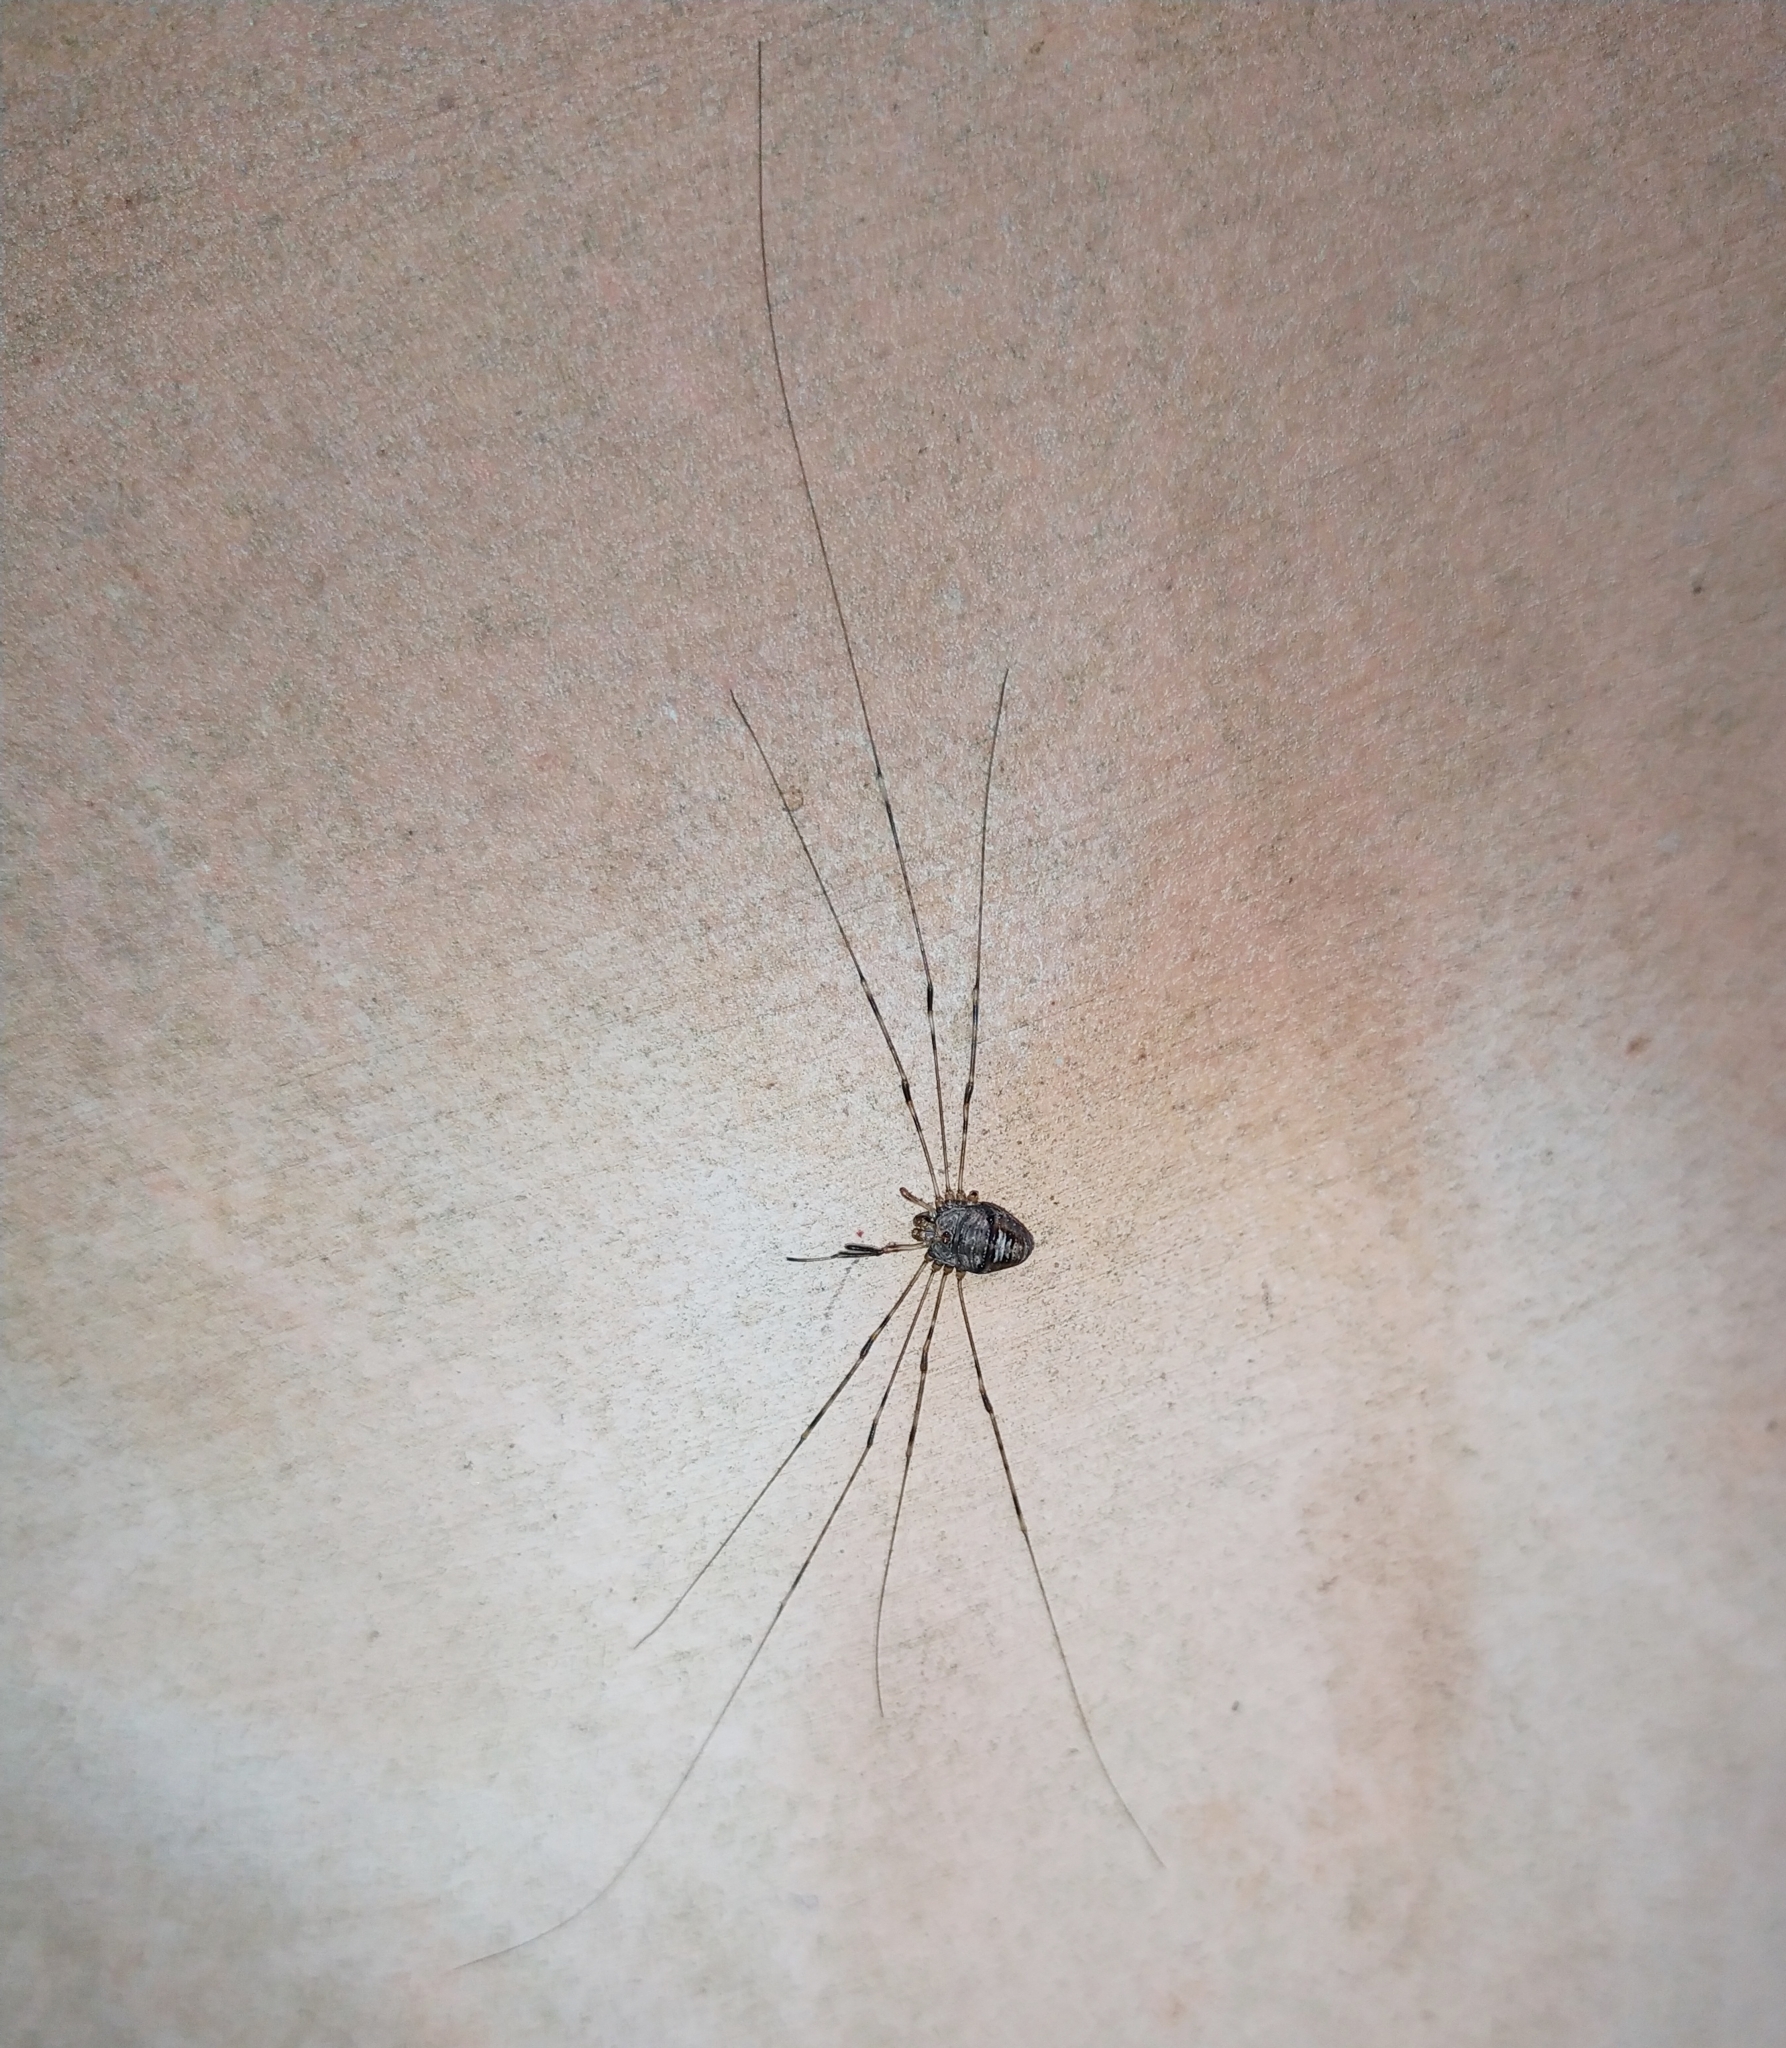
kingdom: Animalia
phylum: Arthropoda
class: Arachnida
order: Opiliones
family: Phalangiidae
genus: Dicranopalpus
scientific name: Dicranopalpus ramosus
